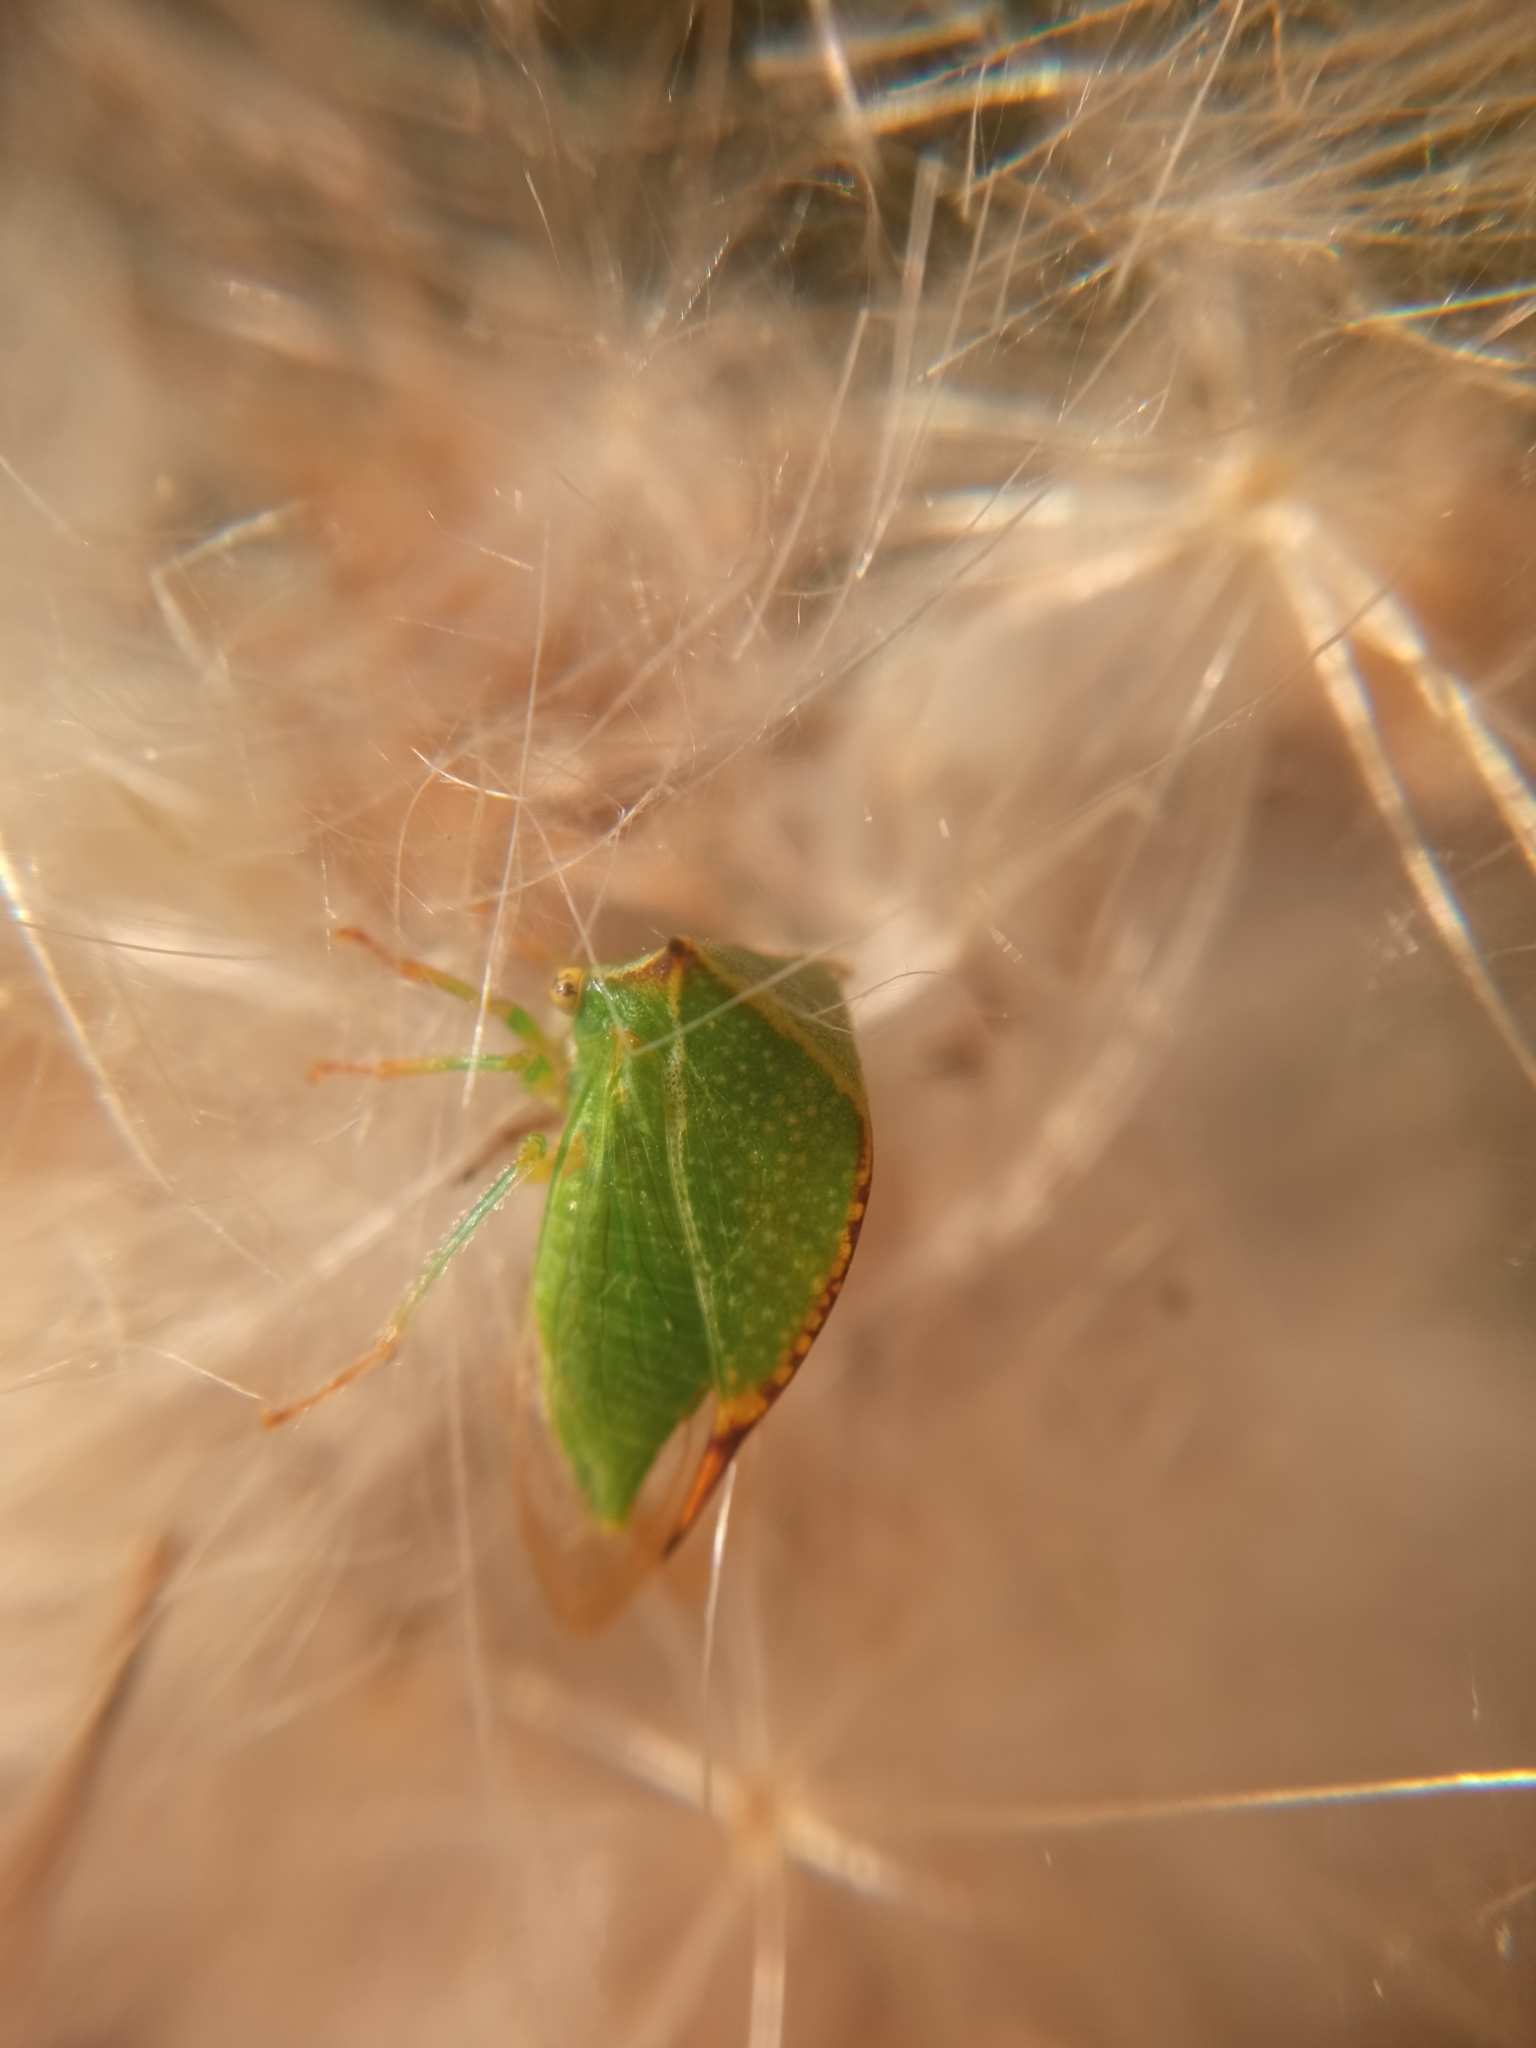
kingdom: Animalia
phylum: Arthropoda
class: Insecta
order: Hemiptera
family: Membracidae
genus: Stictocephala
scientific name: Stictocephala bisonia
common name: American buffalo treehopper
